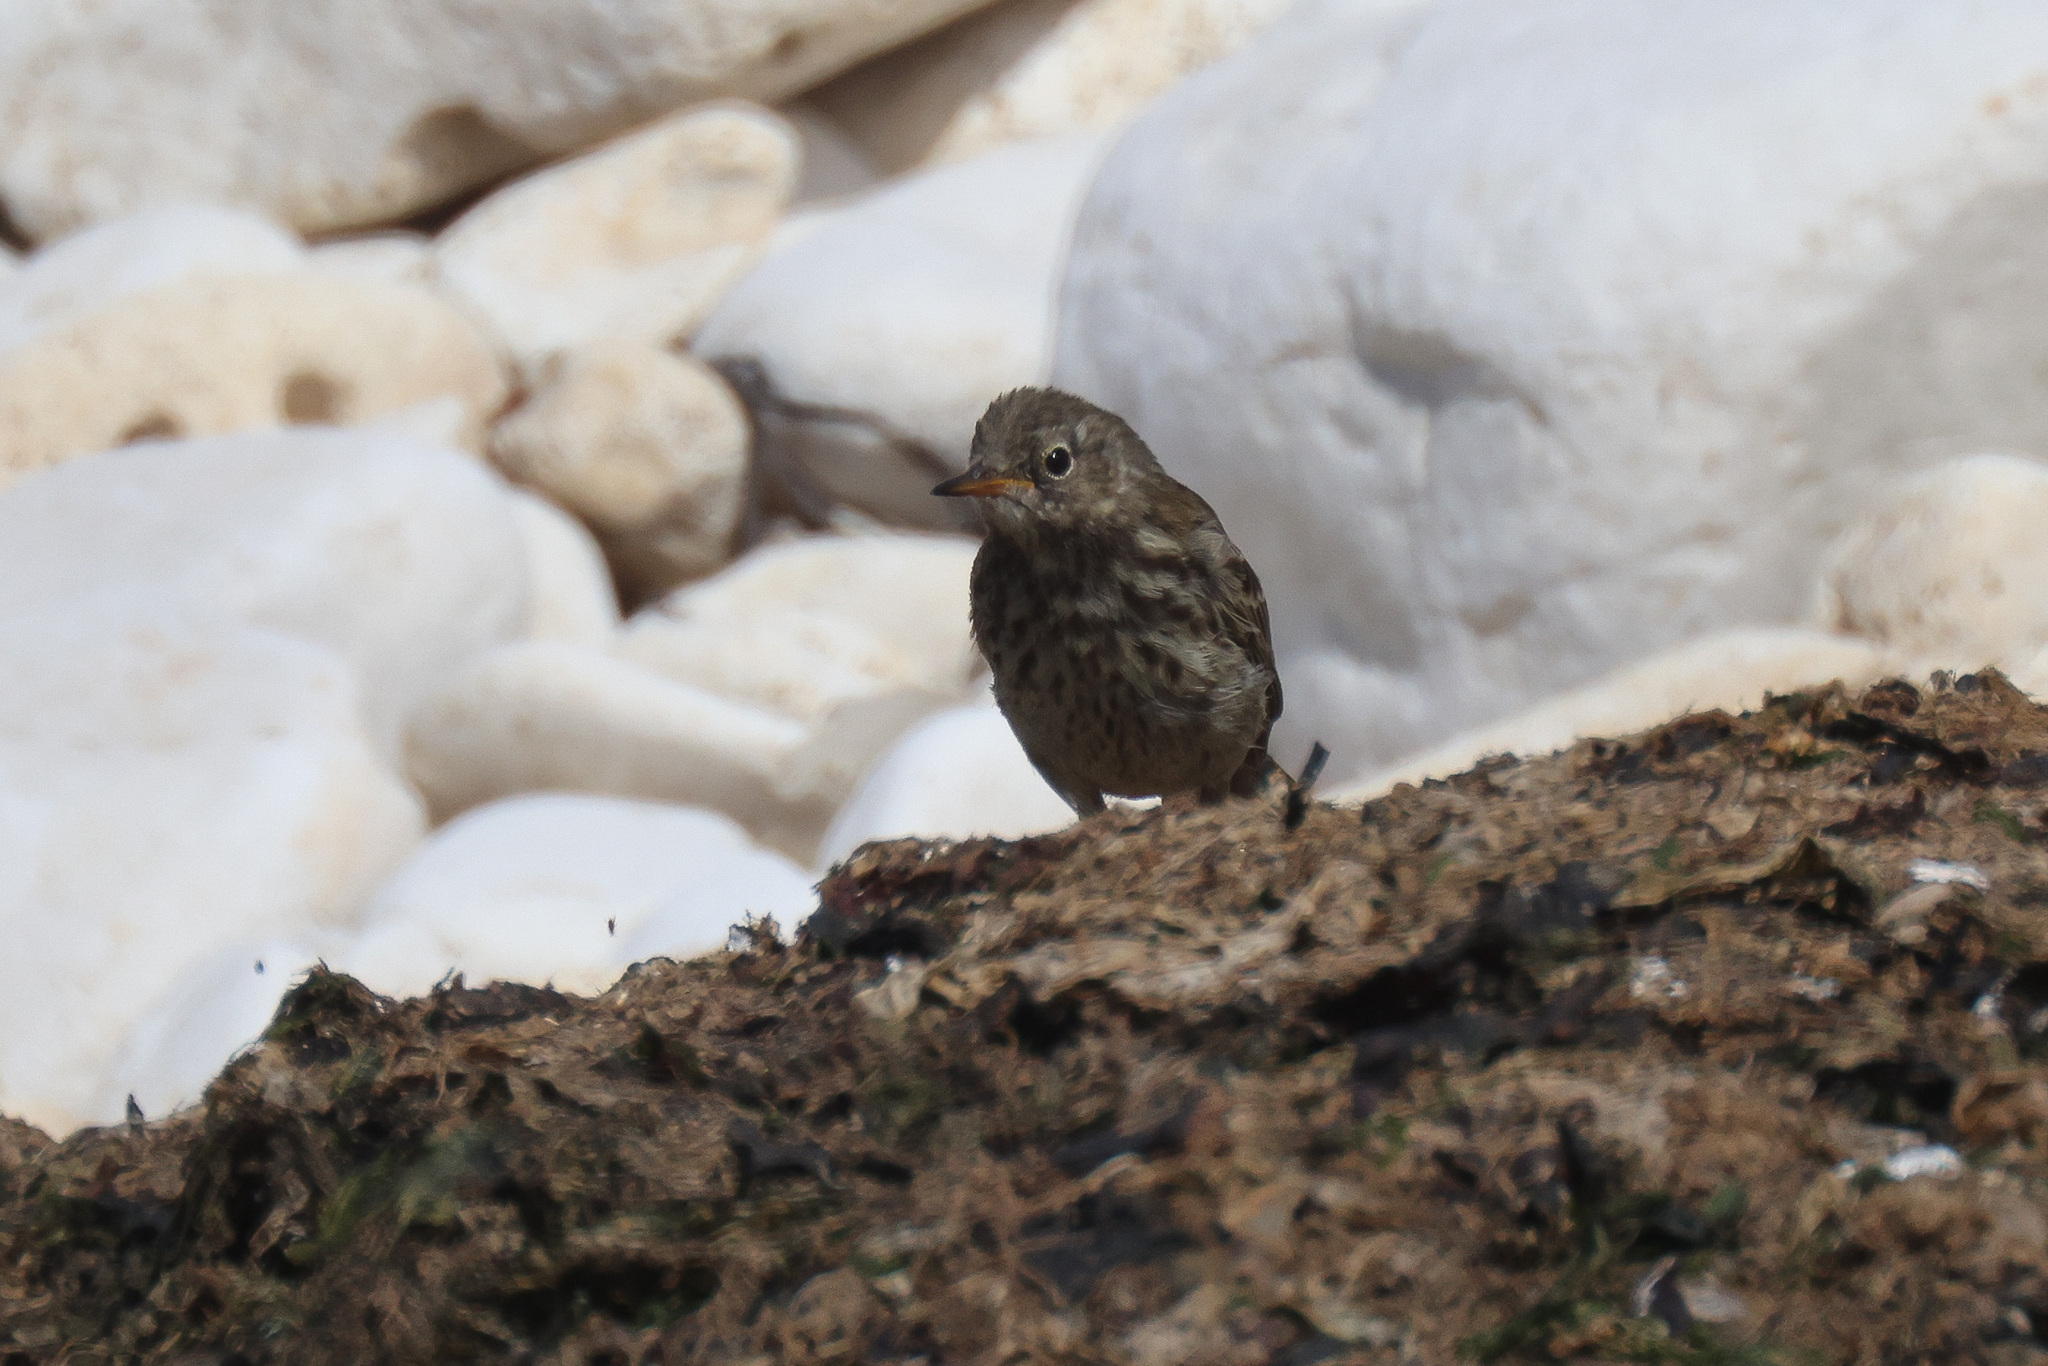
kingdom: Animalia
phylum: Chordata
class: Aves
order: Passeriformes
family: Motacillidae
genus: Anthus
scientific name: Anthus petrosus
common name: Eurasian rock pipit
